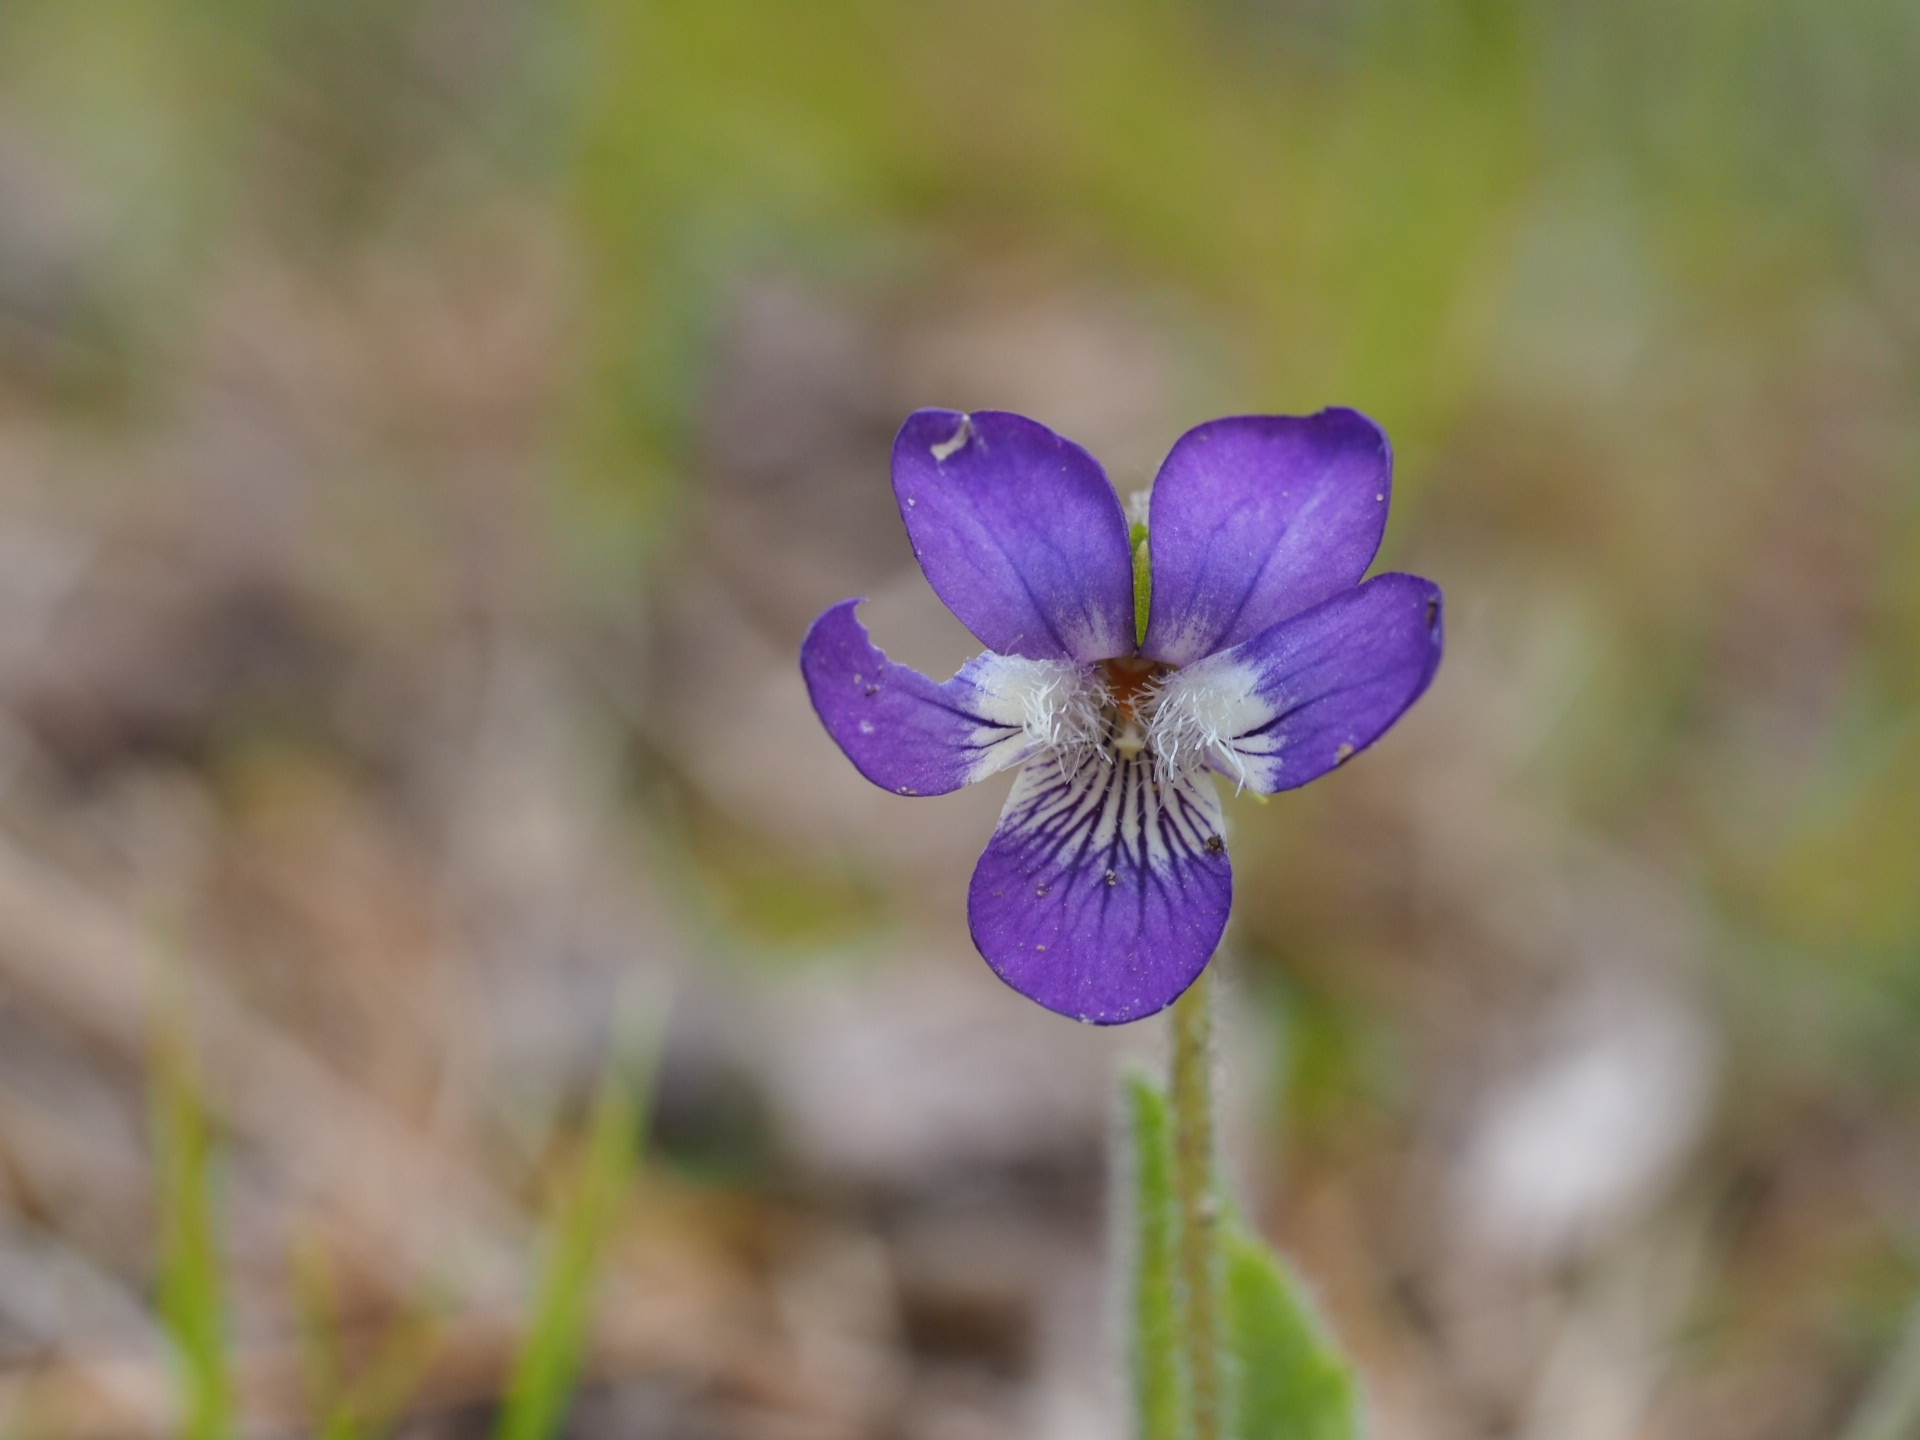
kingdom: Plantae
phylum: Tracheophyta
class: Magnoliopsida
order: Malpighiales
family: Violaceae
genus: Viola
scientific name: Viola fimbriatula
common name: Sand violet
